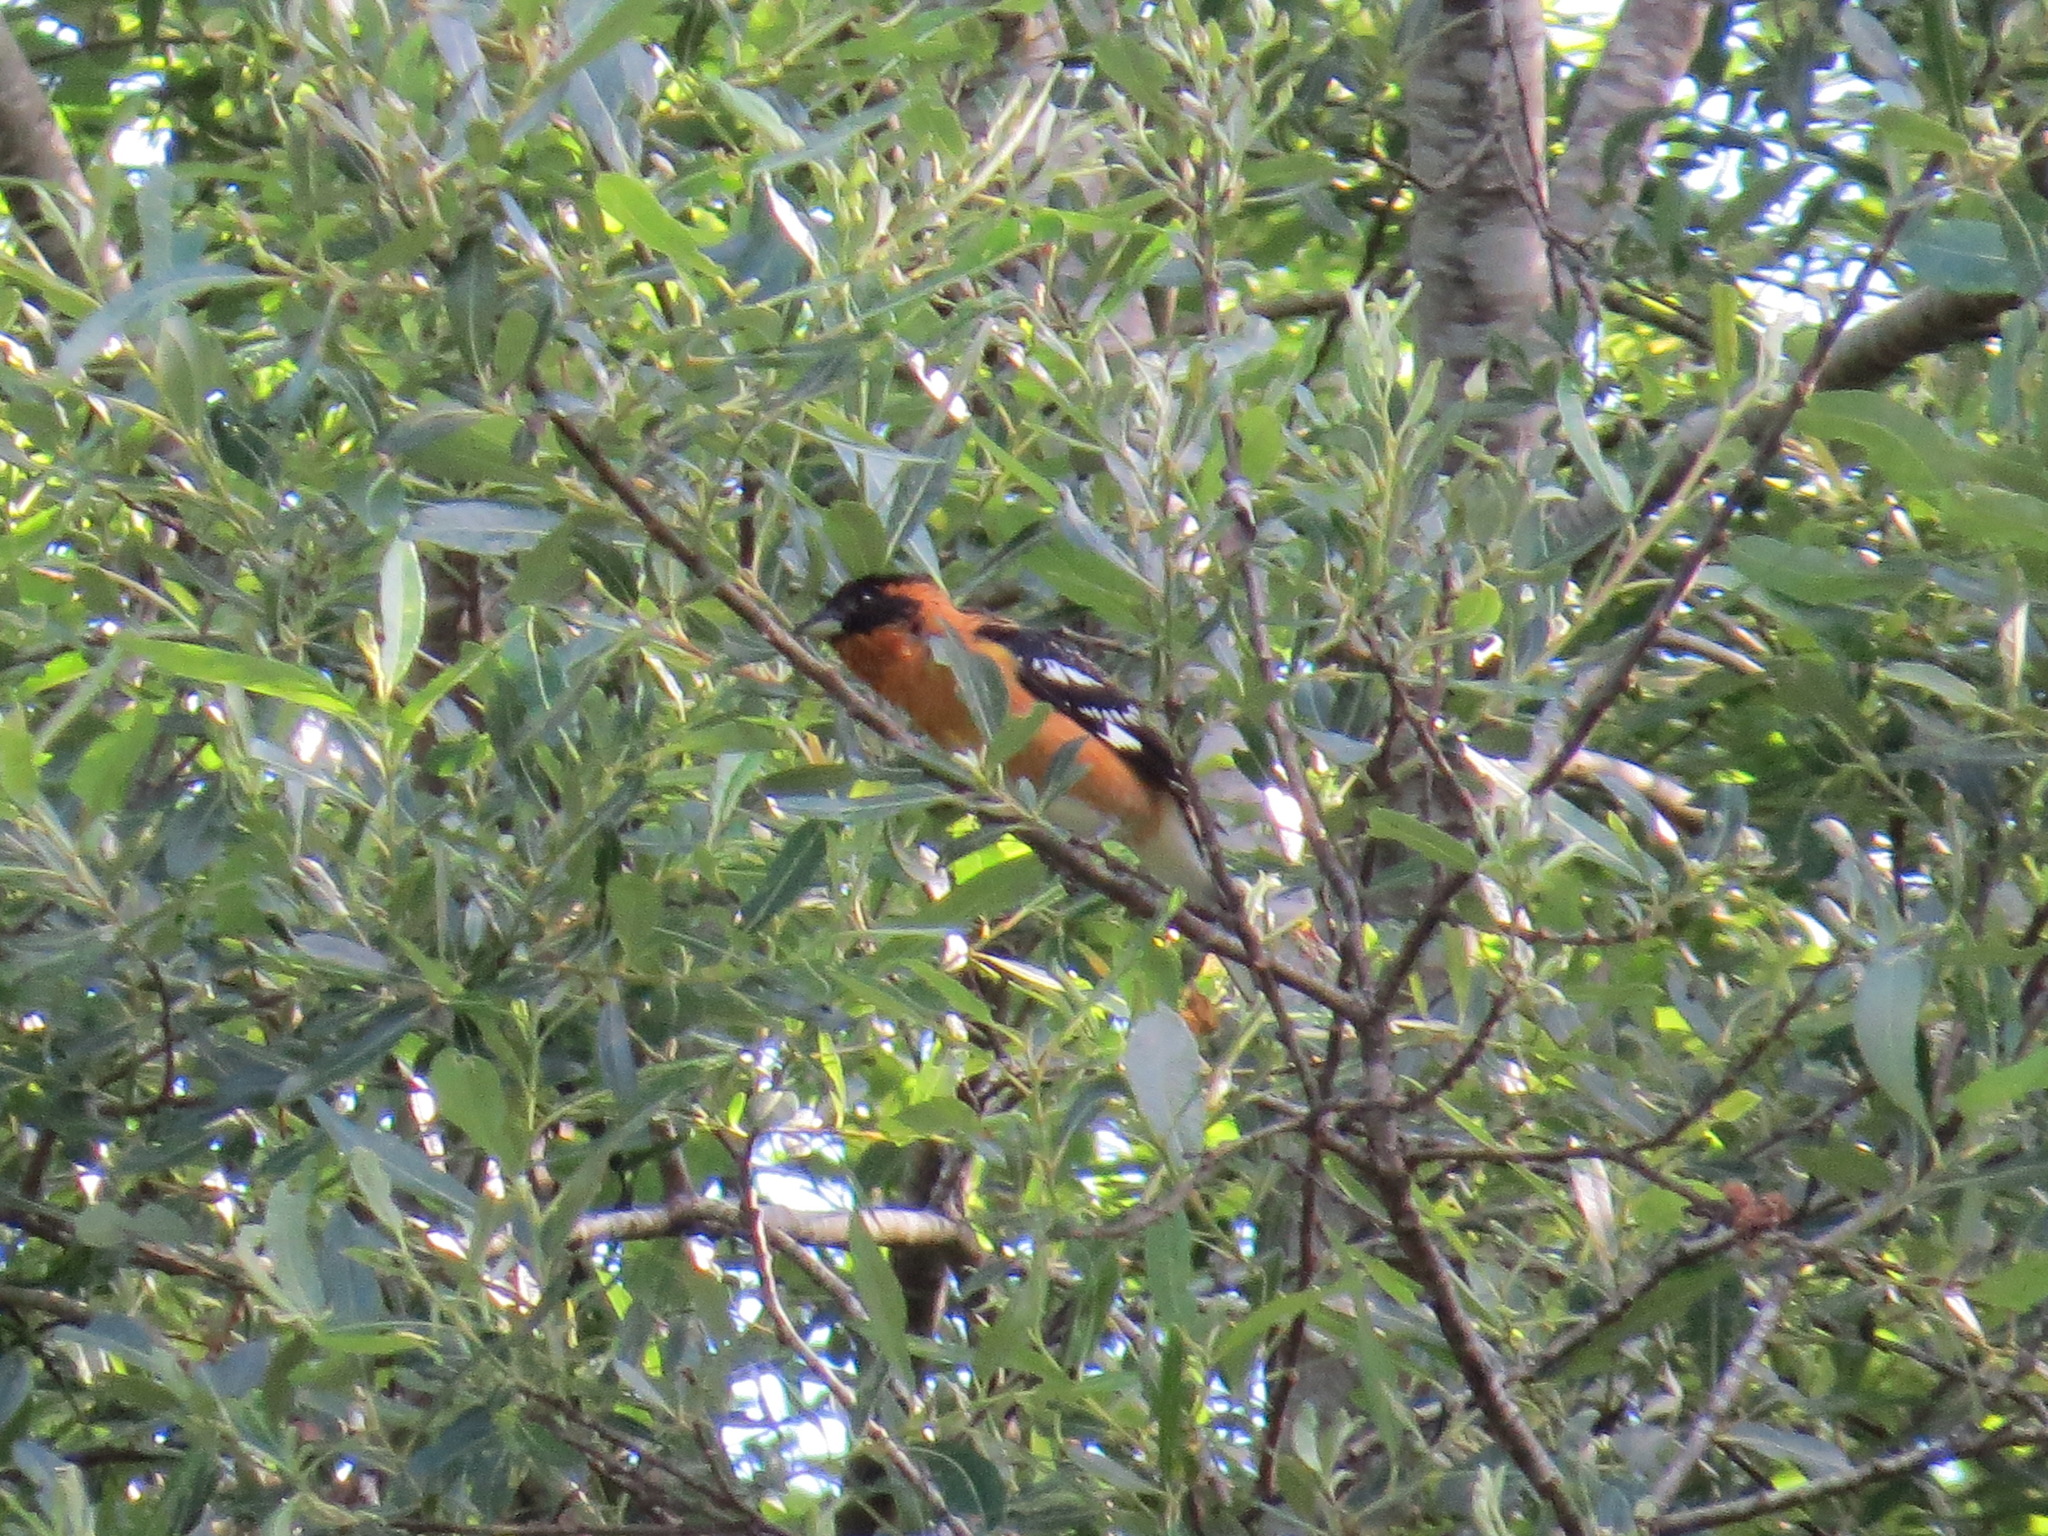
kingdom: Animalia
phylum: Chordata
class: Aves
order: Passeriformes
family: Cardinalidae
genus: Pheucticus
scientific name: Pheucticus melanocephalus
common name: Black-headed grosbeak
